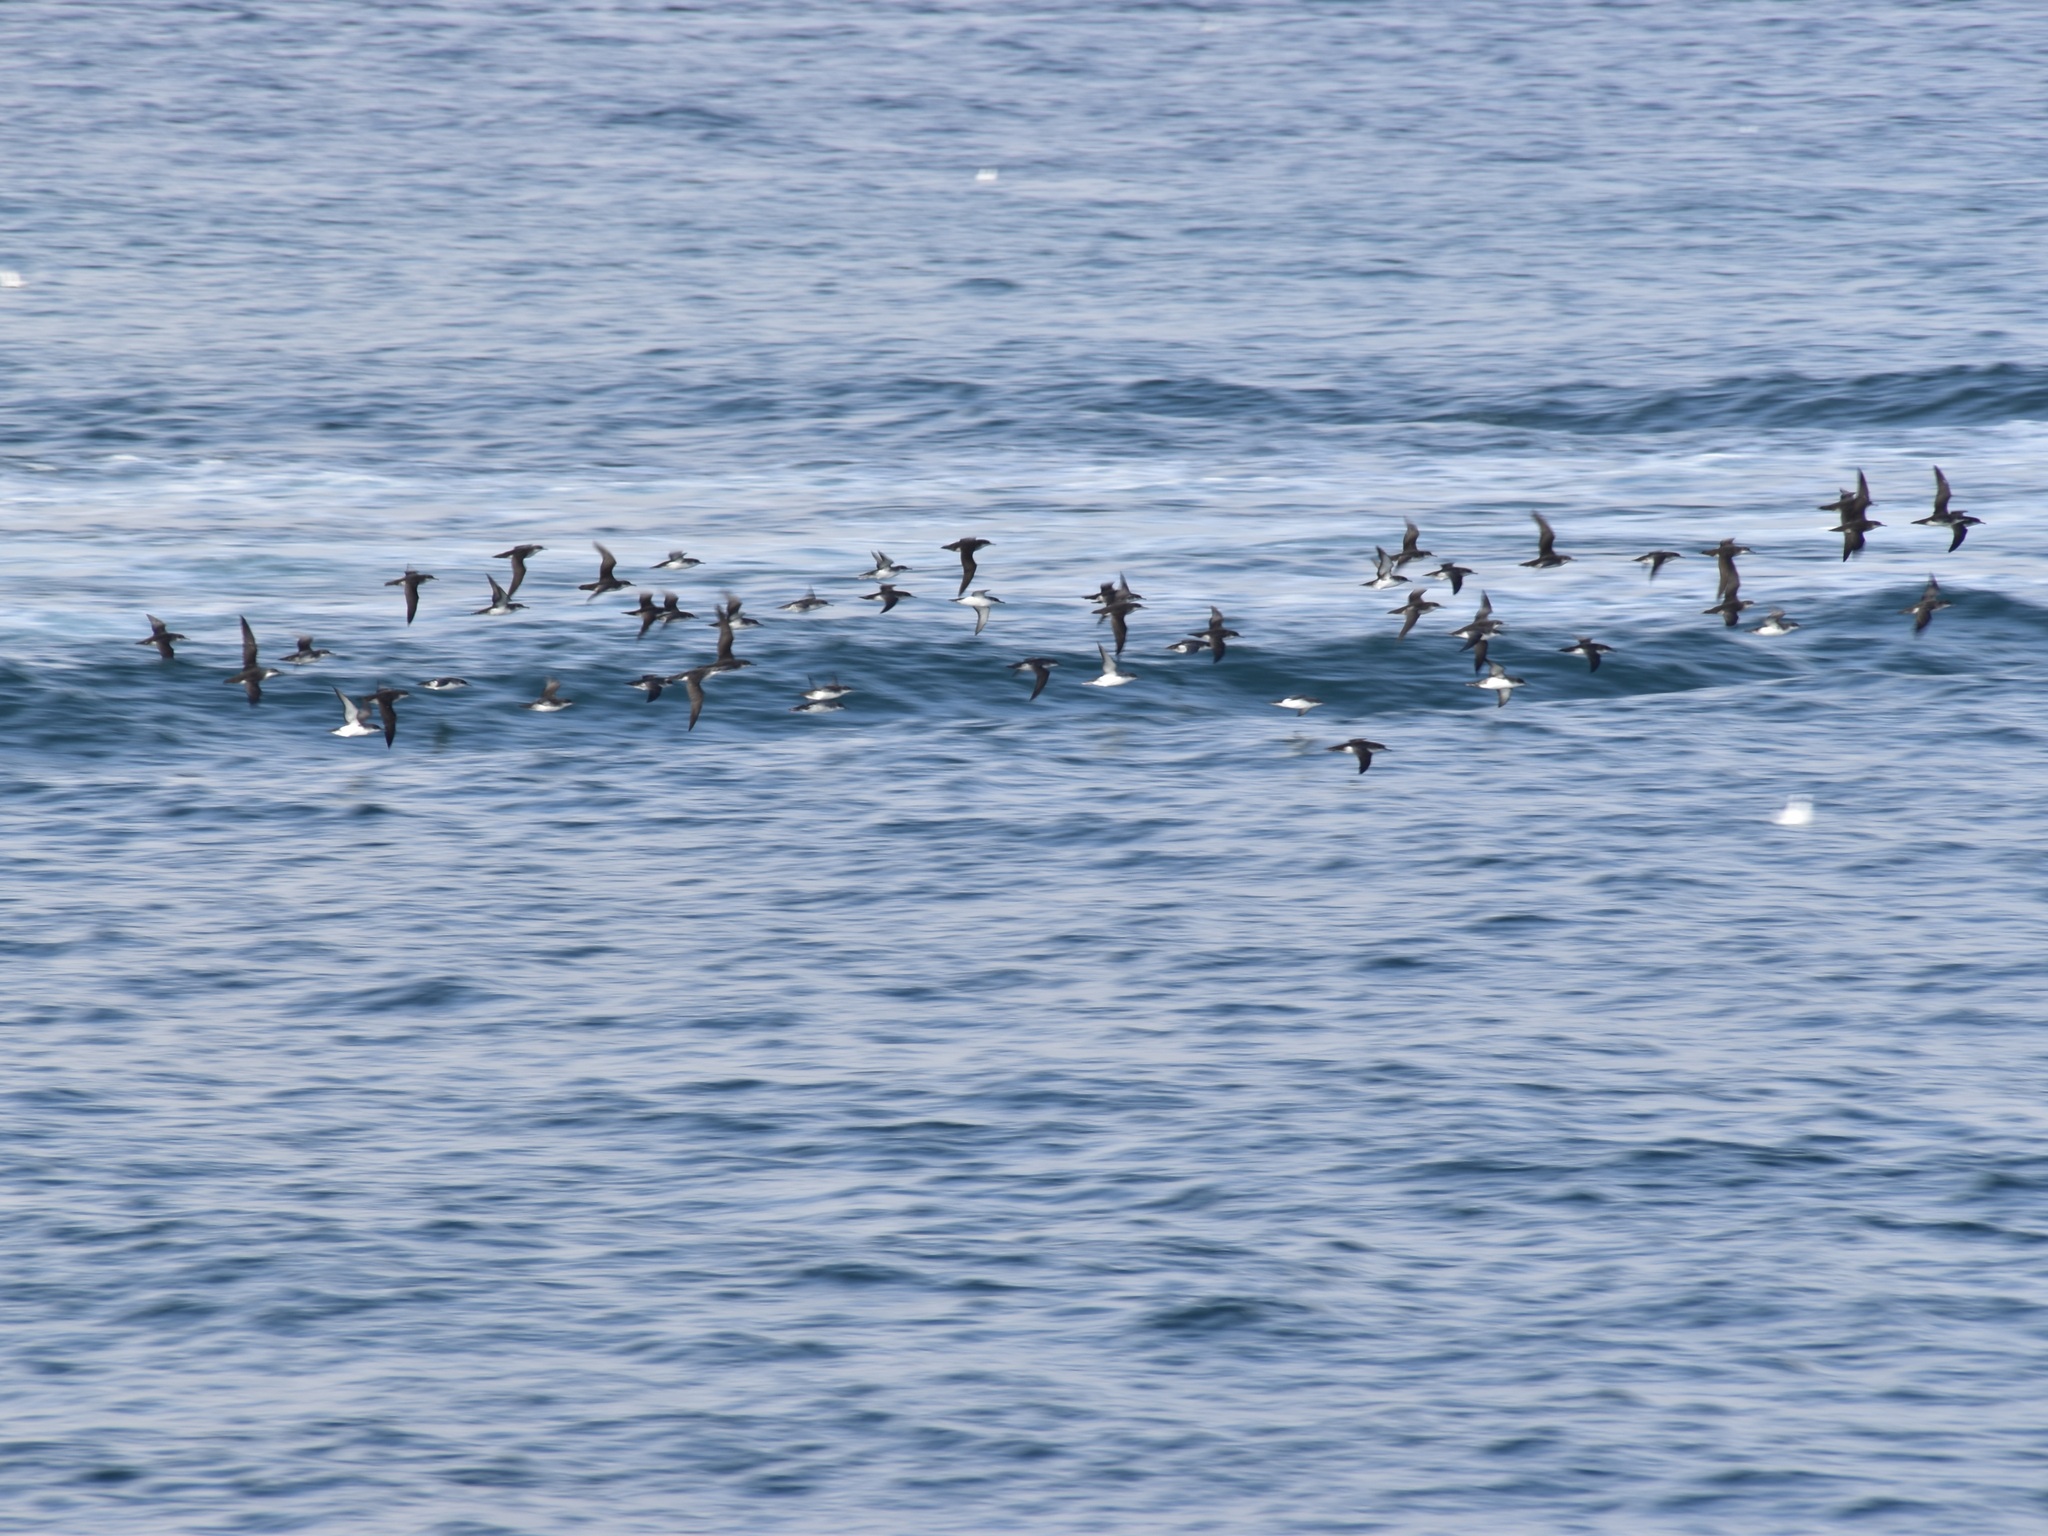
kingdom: Animalia
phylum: Chordata
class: Aves
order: Procellariiformes
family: Procellariidae
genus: Puffinus
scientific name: Puffinus yelkouan
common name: Yelkouan shearwater
